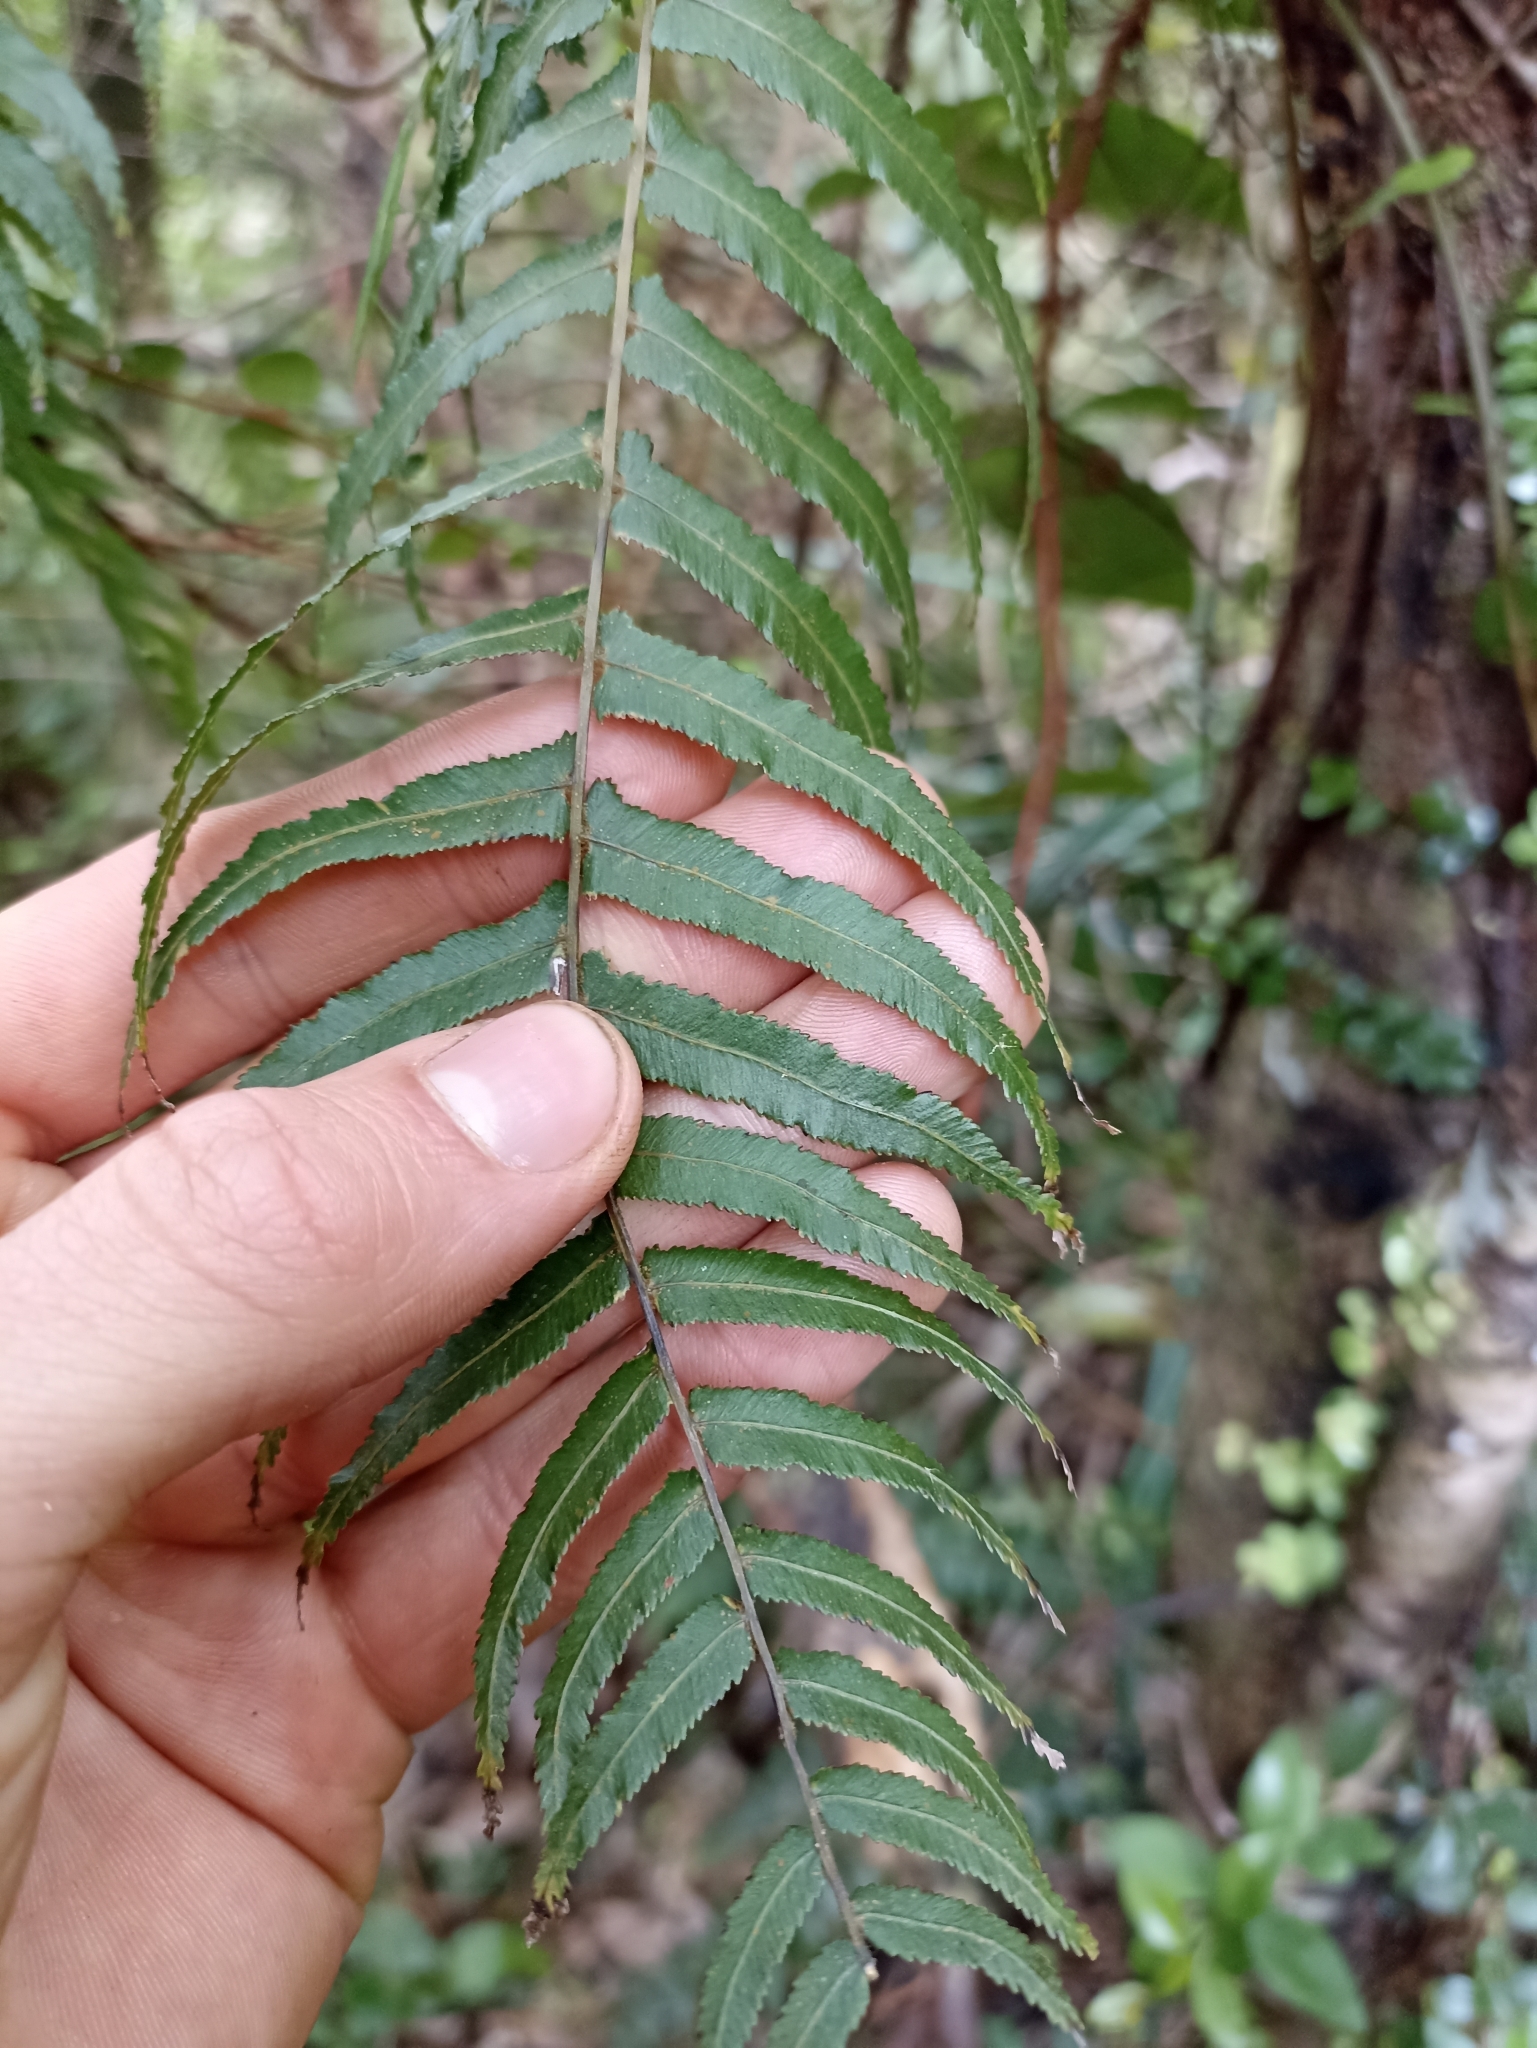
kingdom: Plantae
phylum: Tracheophyta
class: Polypodiopsida
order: Polypodiales
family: Blechnaceae
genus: Icarus
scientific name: Icarus filiformis
